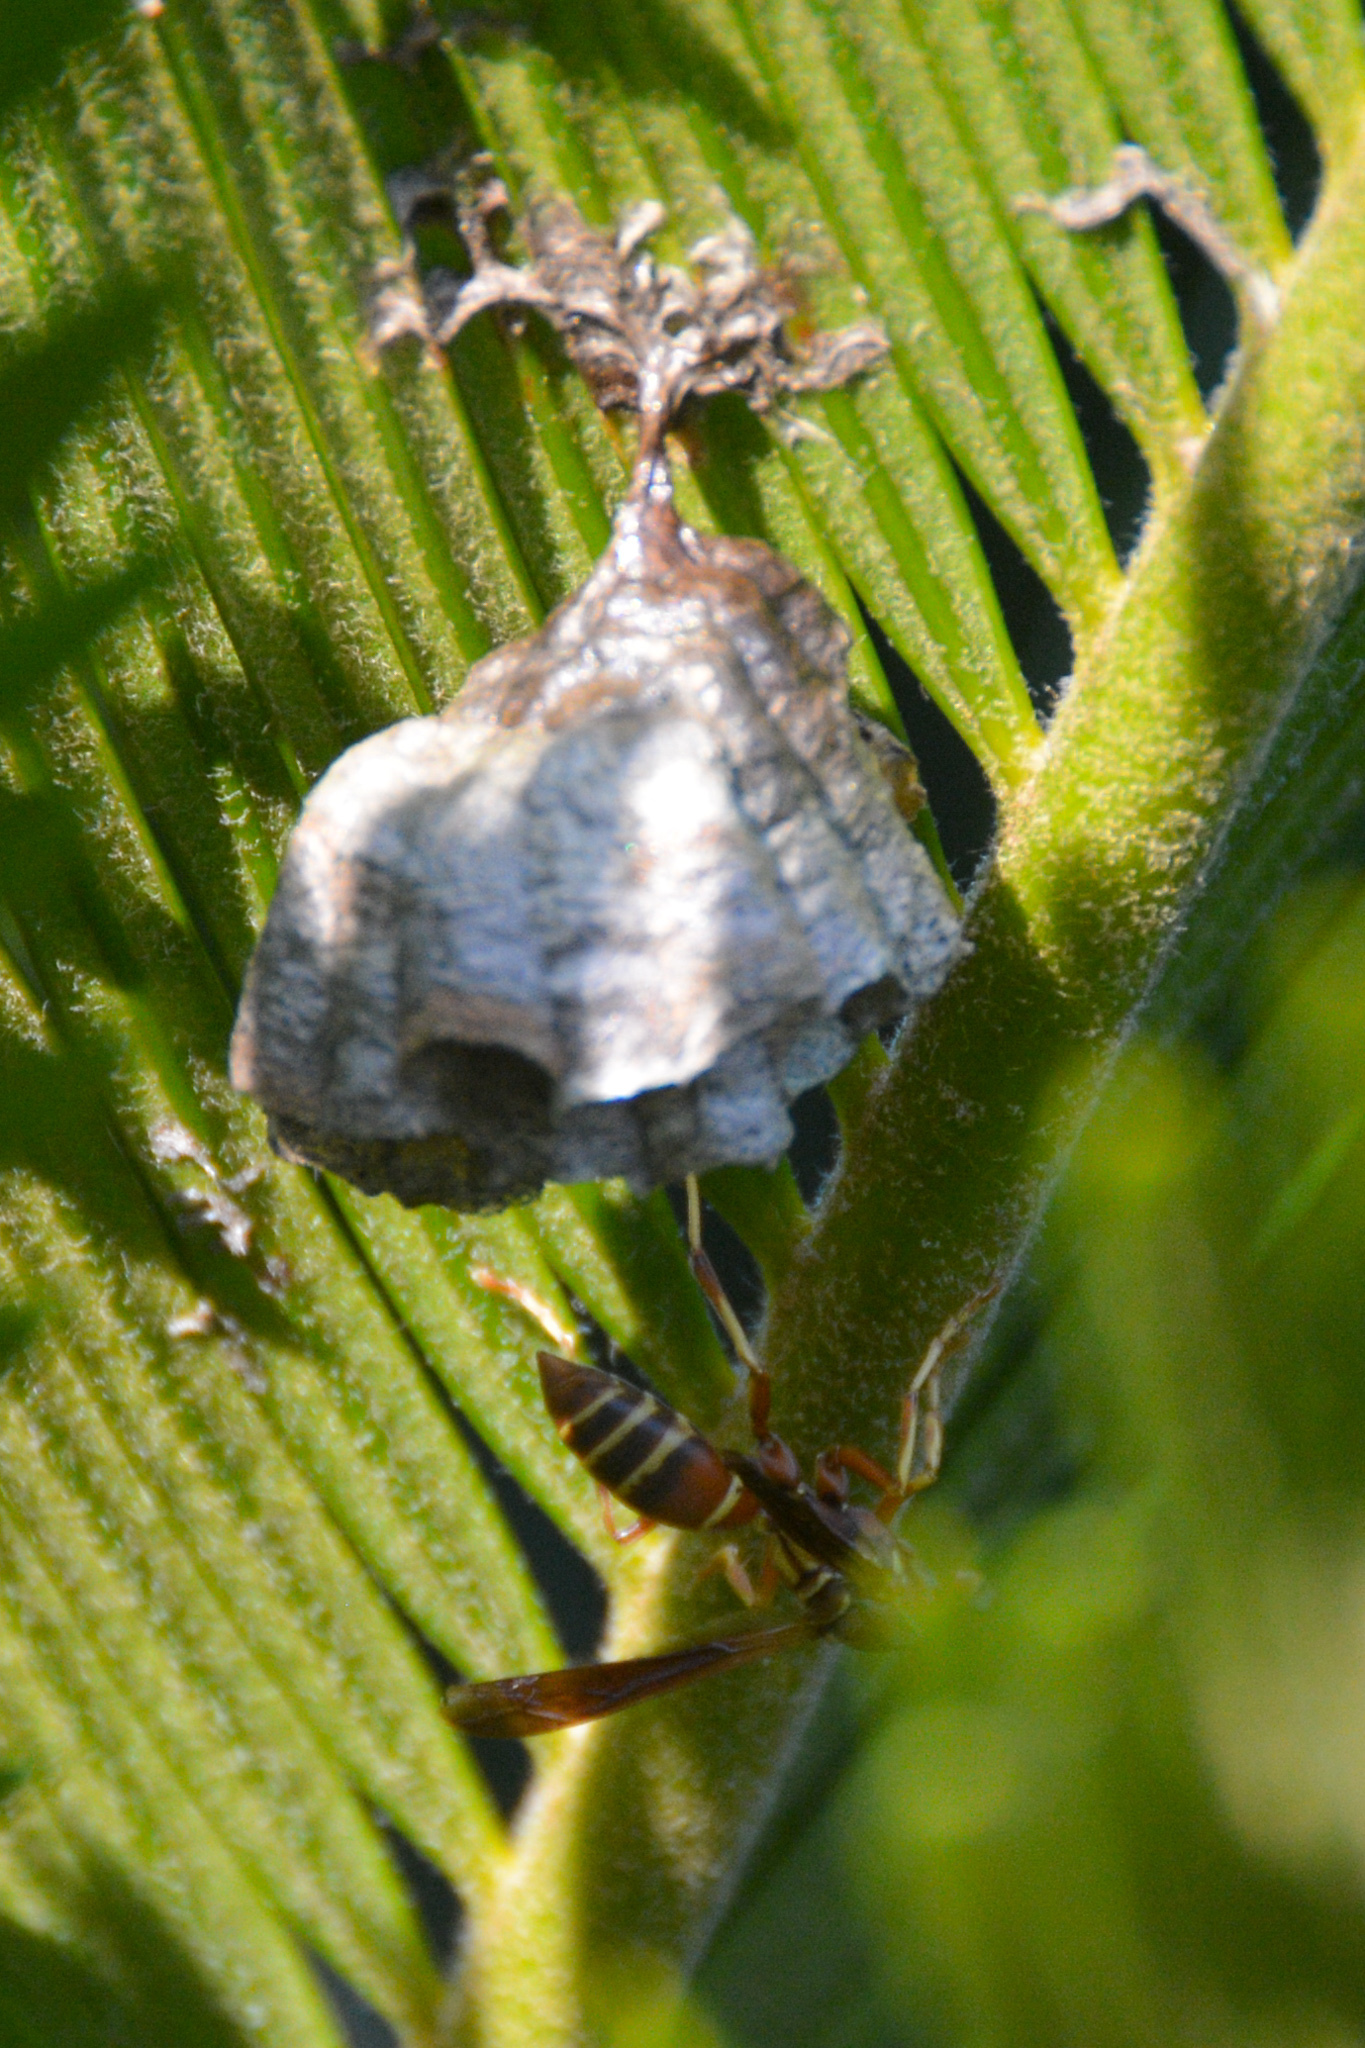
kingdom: Animalia
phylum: Arthropoda
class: Insecta
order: Hymenoptera
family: Eumenidae
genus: Polistes
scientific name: Polistes dorsalis
